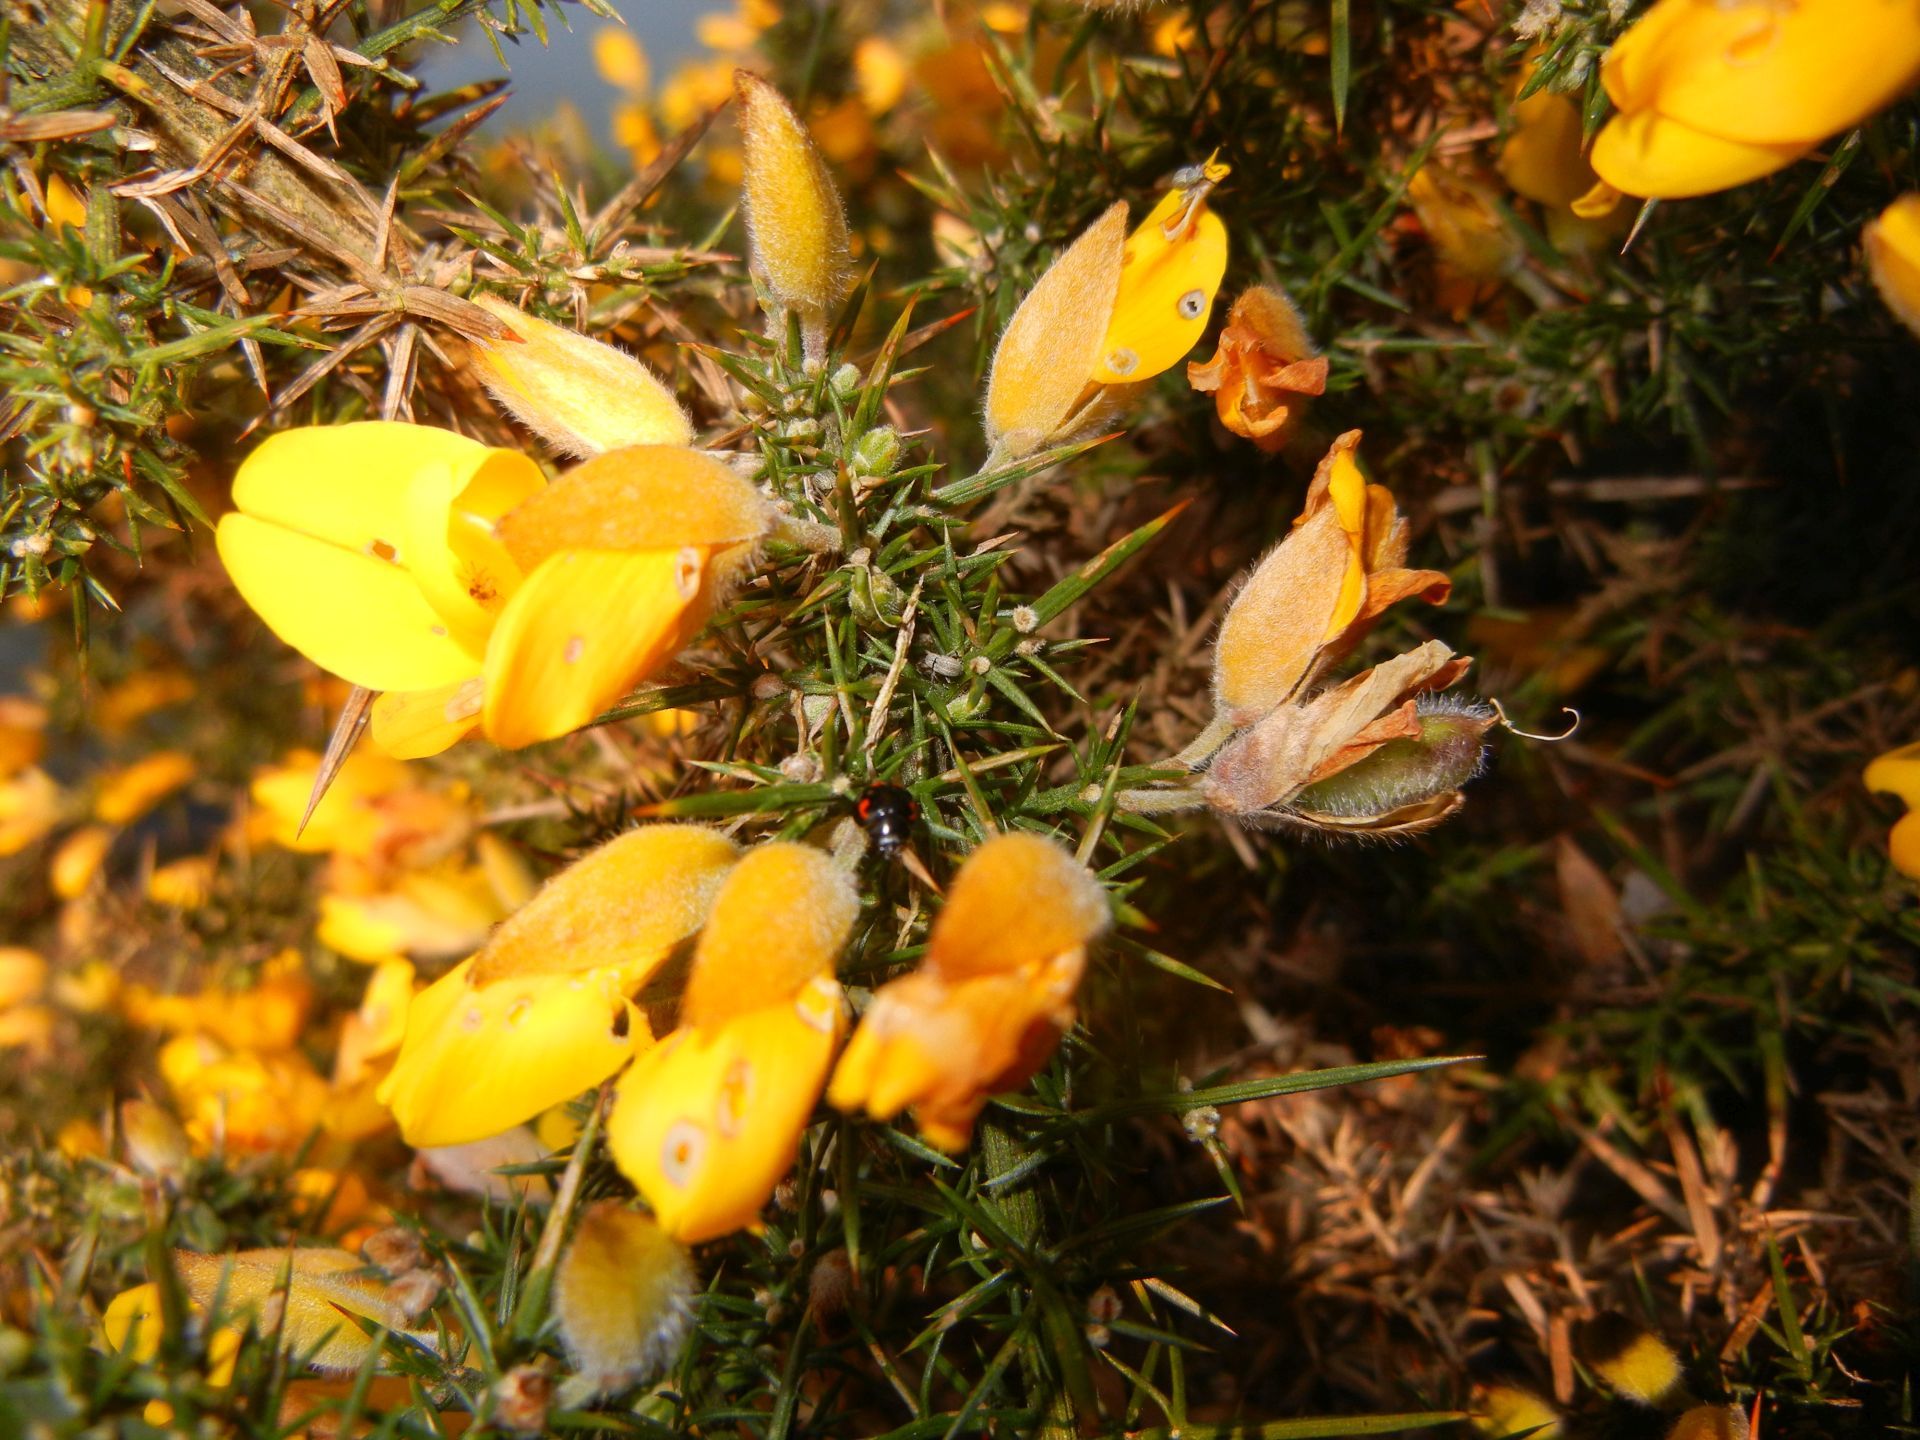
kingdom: Plantae
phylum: Tracheophyta
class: Magnoliopsida
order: Fabales
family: Fabaceae
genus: Ulex
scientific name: Ulex europaeus
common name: Common gorse
